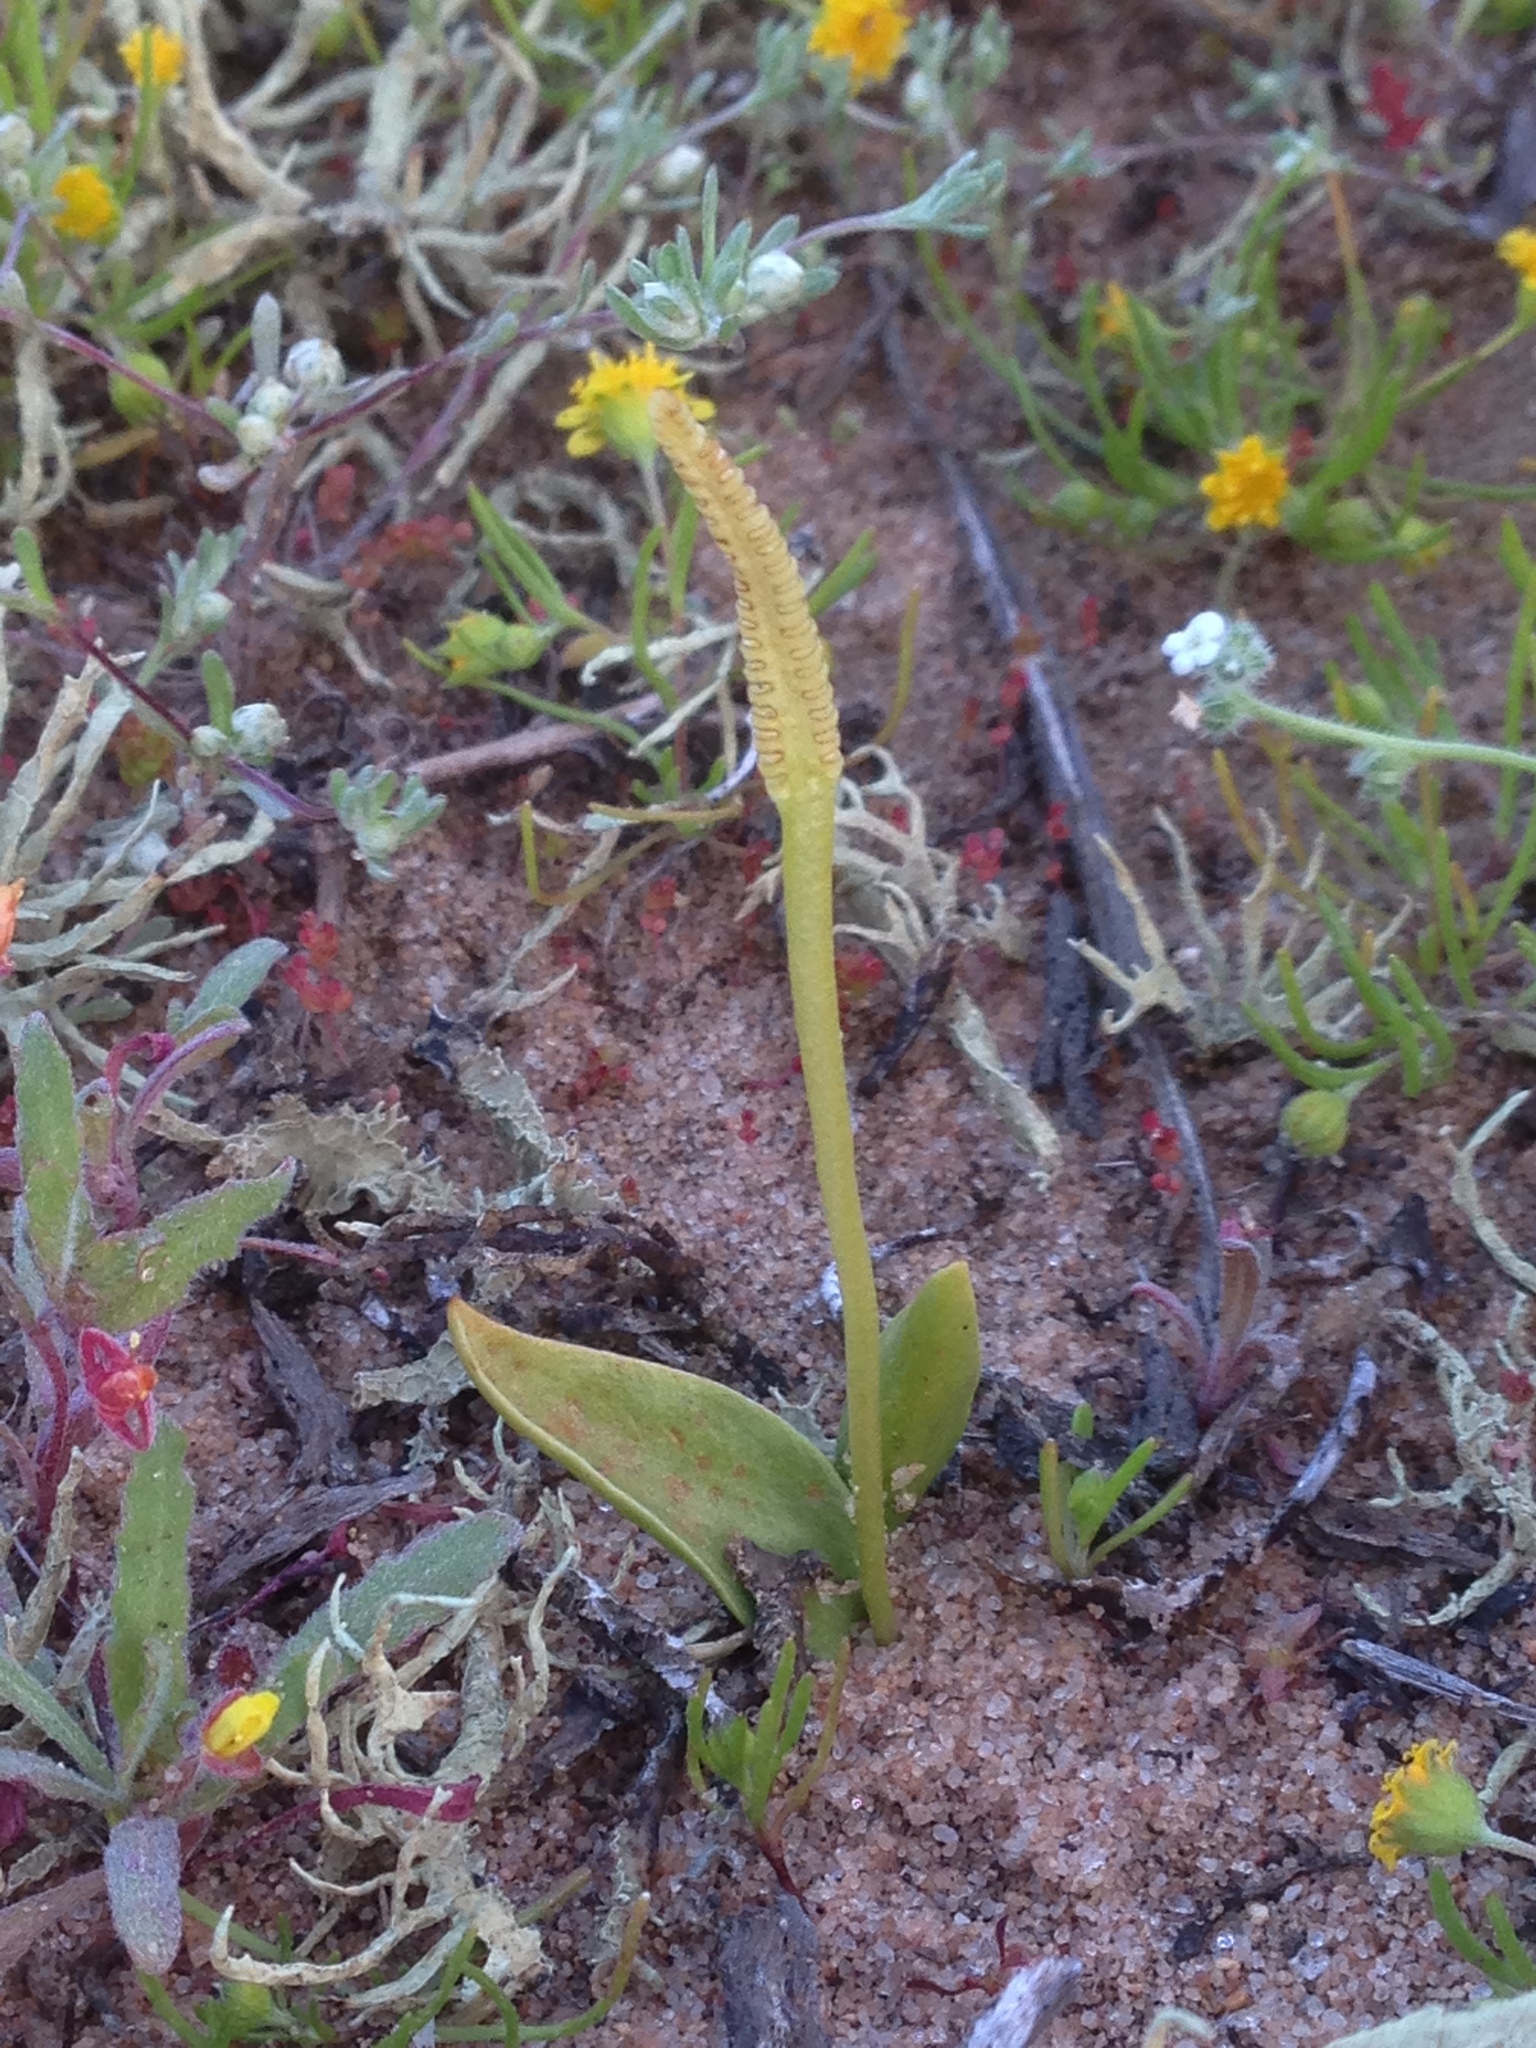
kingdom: Plantae
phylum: Tracheophyta
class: Polypodiopsida
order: Ophioglossales
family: Ophioglossaceae
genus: Ophioglossum
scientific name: Ophioglossum californicum
